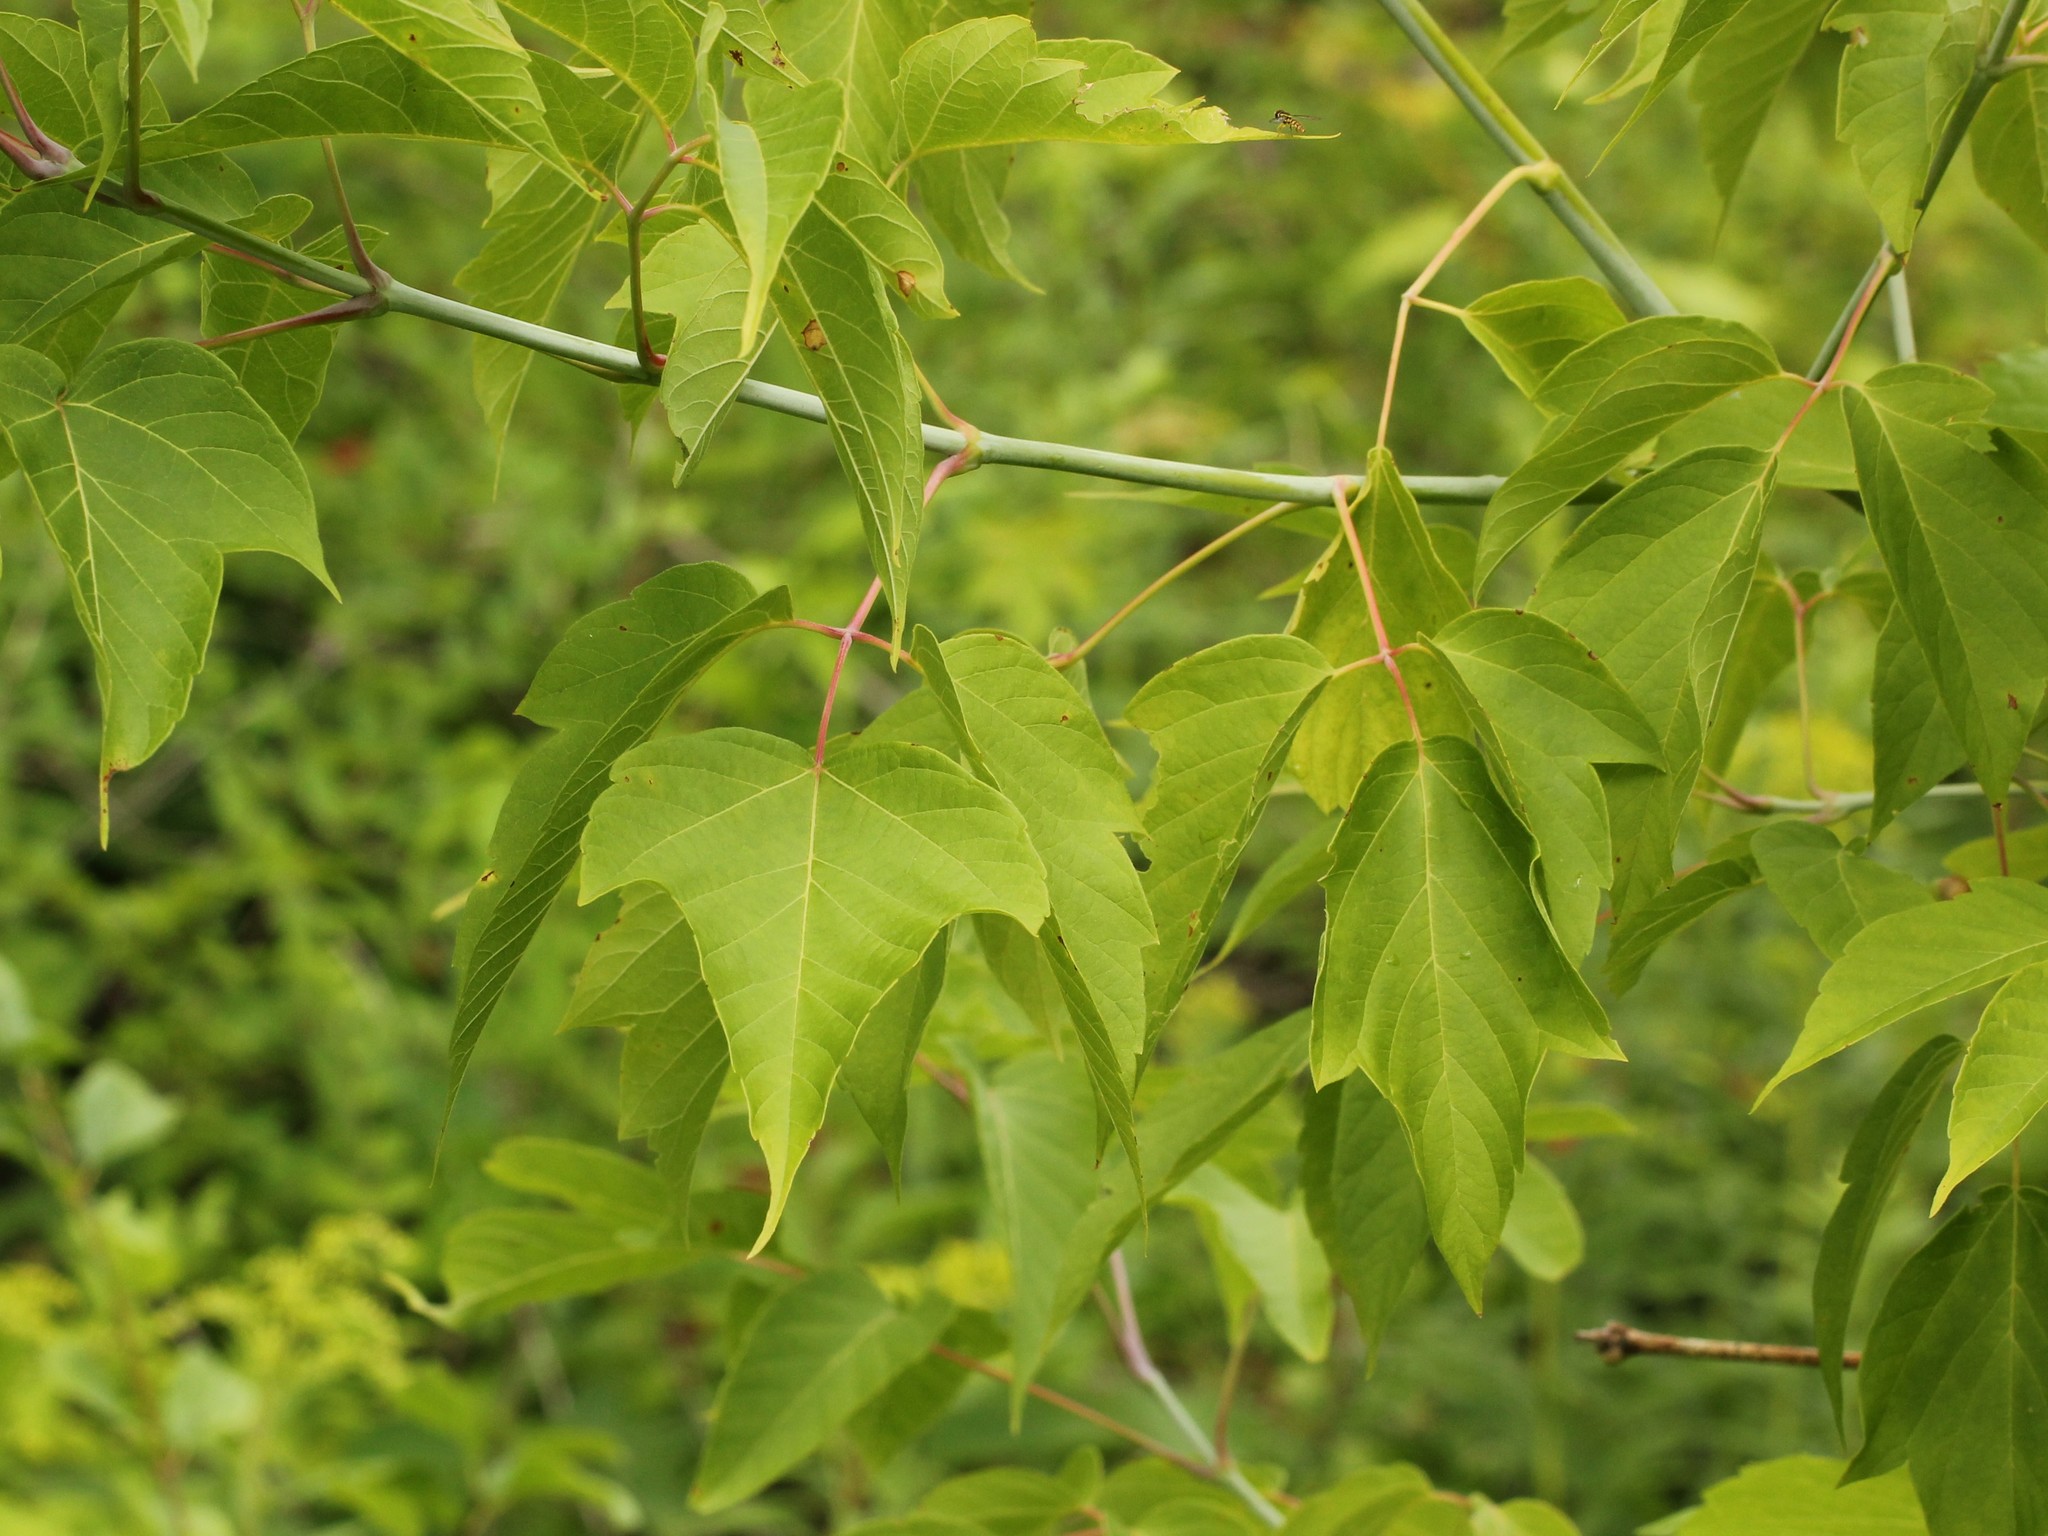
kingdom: Plantae
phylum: Tracheophyta
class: Magnoliopsida
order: Sapindales
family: Sapindaceae
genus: Acer
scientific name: Acer negundo
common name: Ashleaf maple
